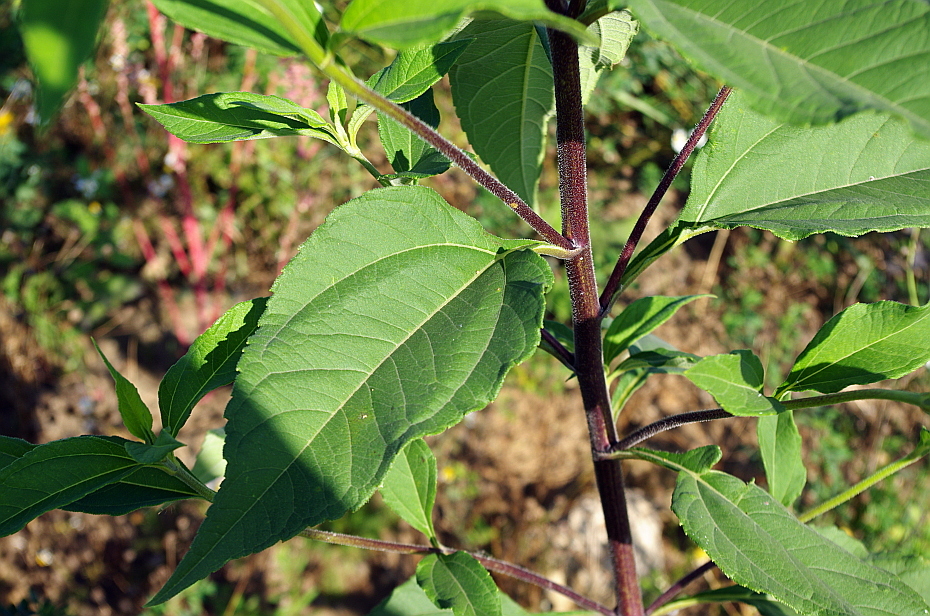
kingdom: Plantae
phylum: Tracheophyta
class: Magnoliopsida
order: Asterales
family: Asteraceae
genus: Helianthus
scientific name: Helianthus tuberosus
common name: Jerusalem artichoke
